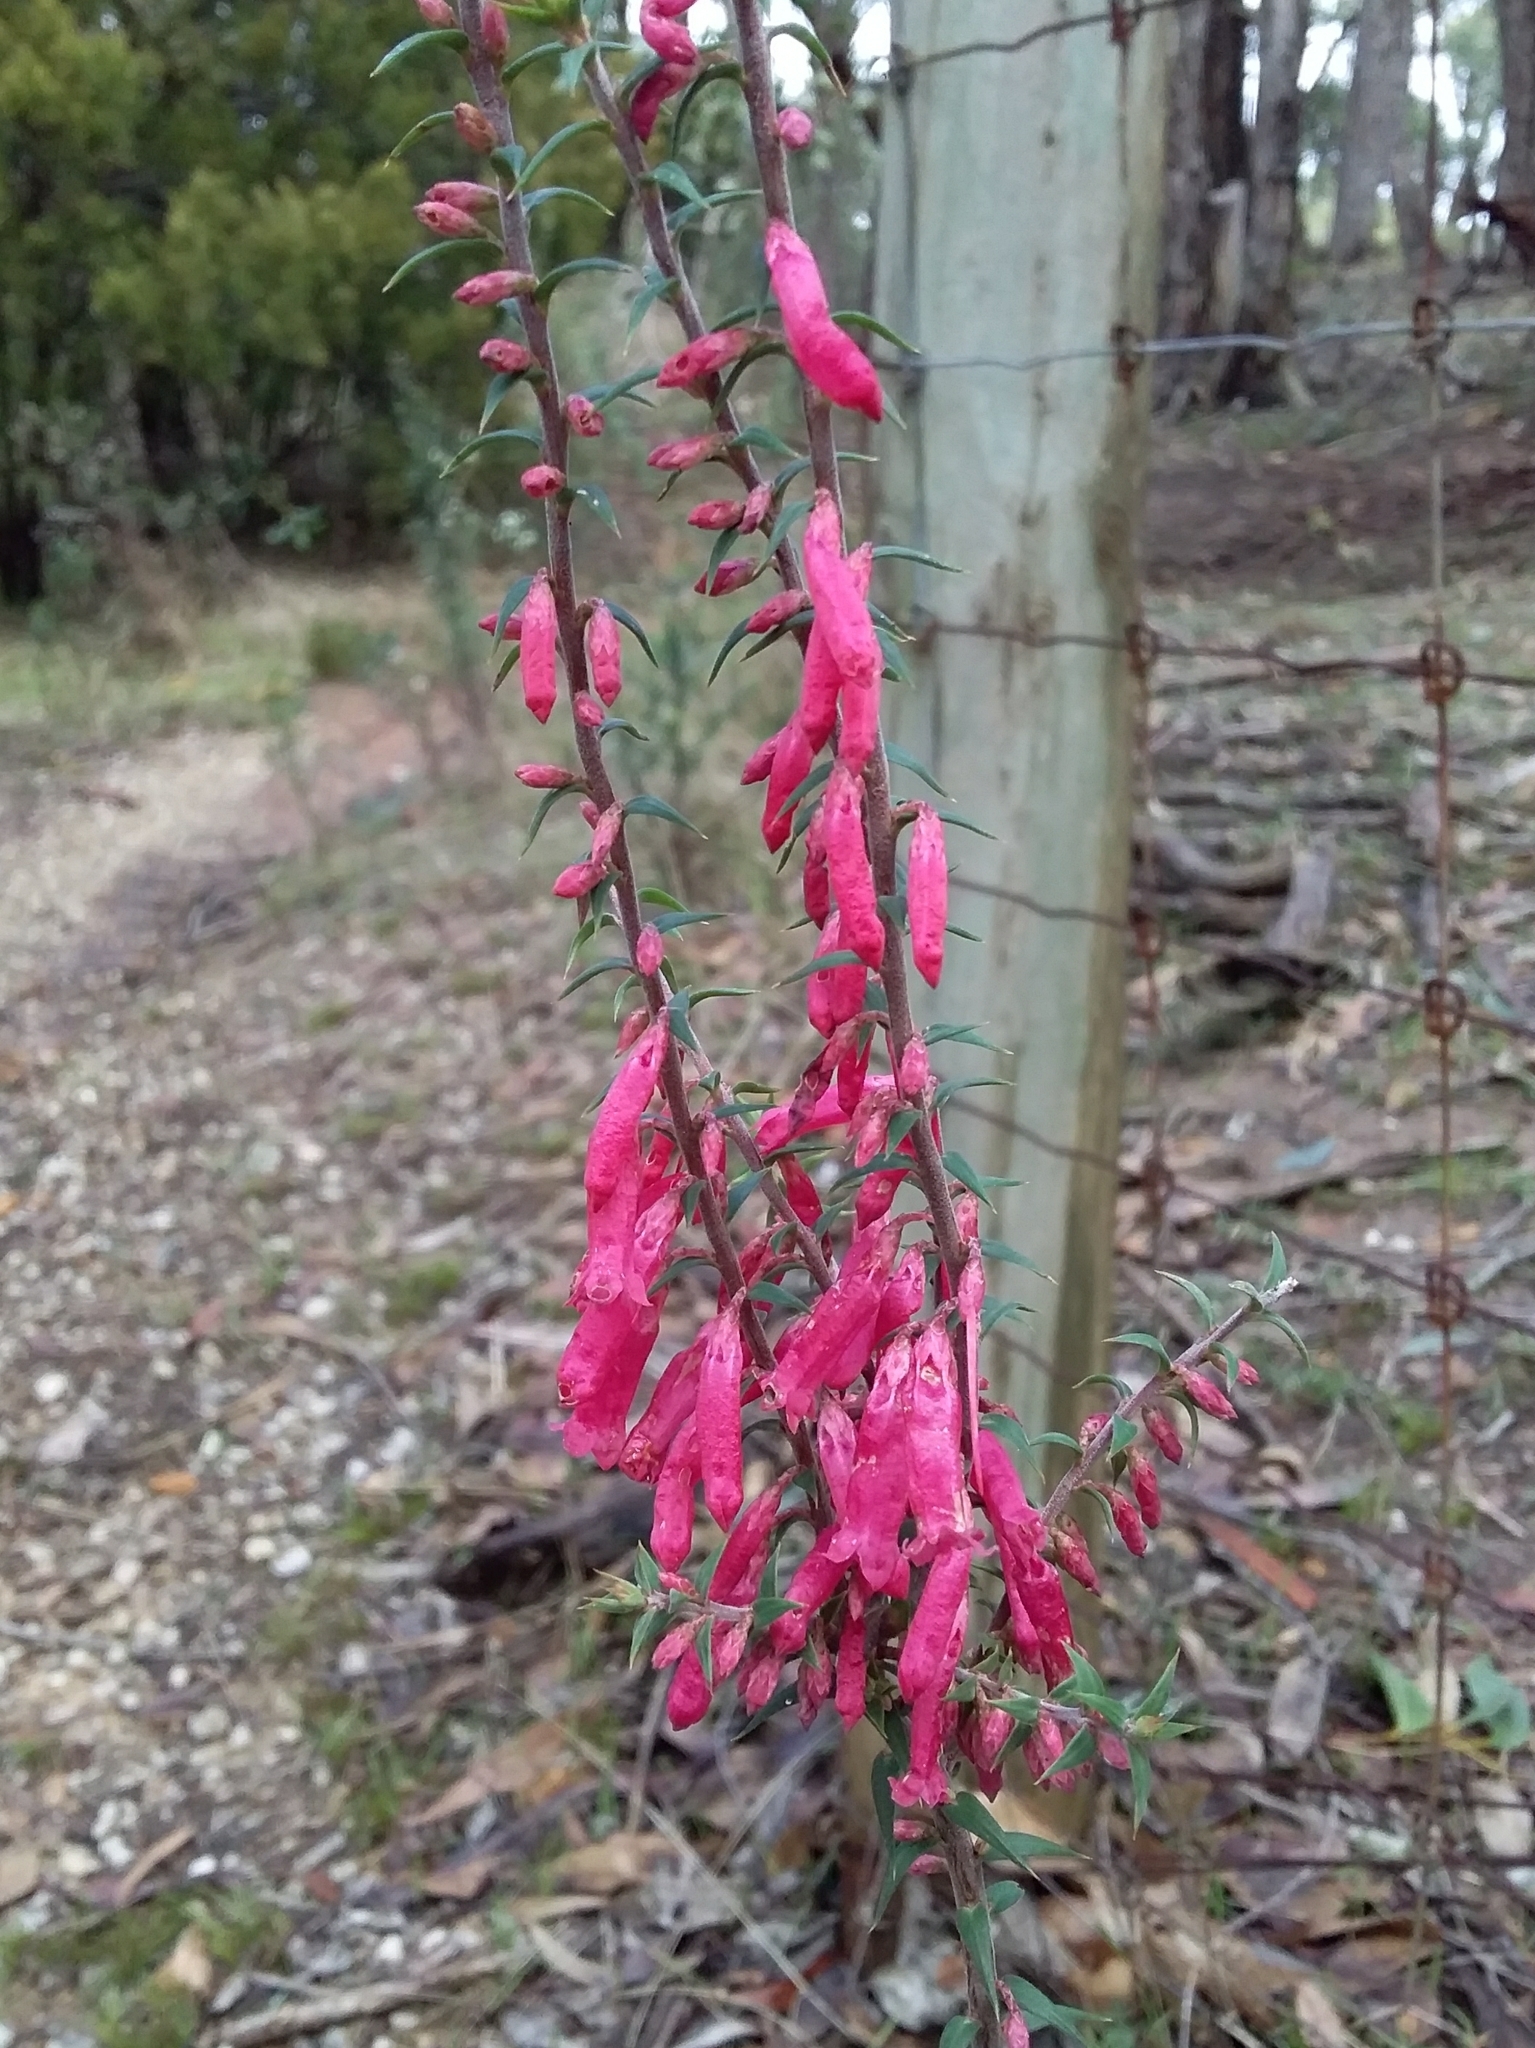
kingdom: Plantae
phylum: Tracheophyta
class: Magnoliopsida
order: Ericales
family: Ericaceae
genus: Epacris
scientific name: Epacris impressa
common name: Common-heath
